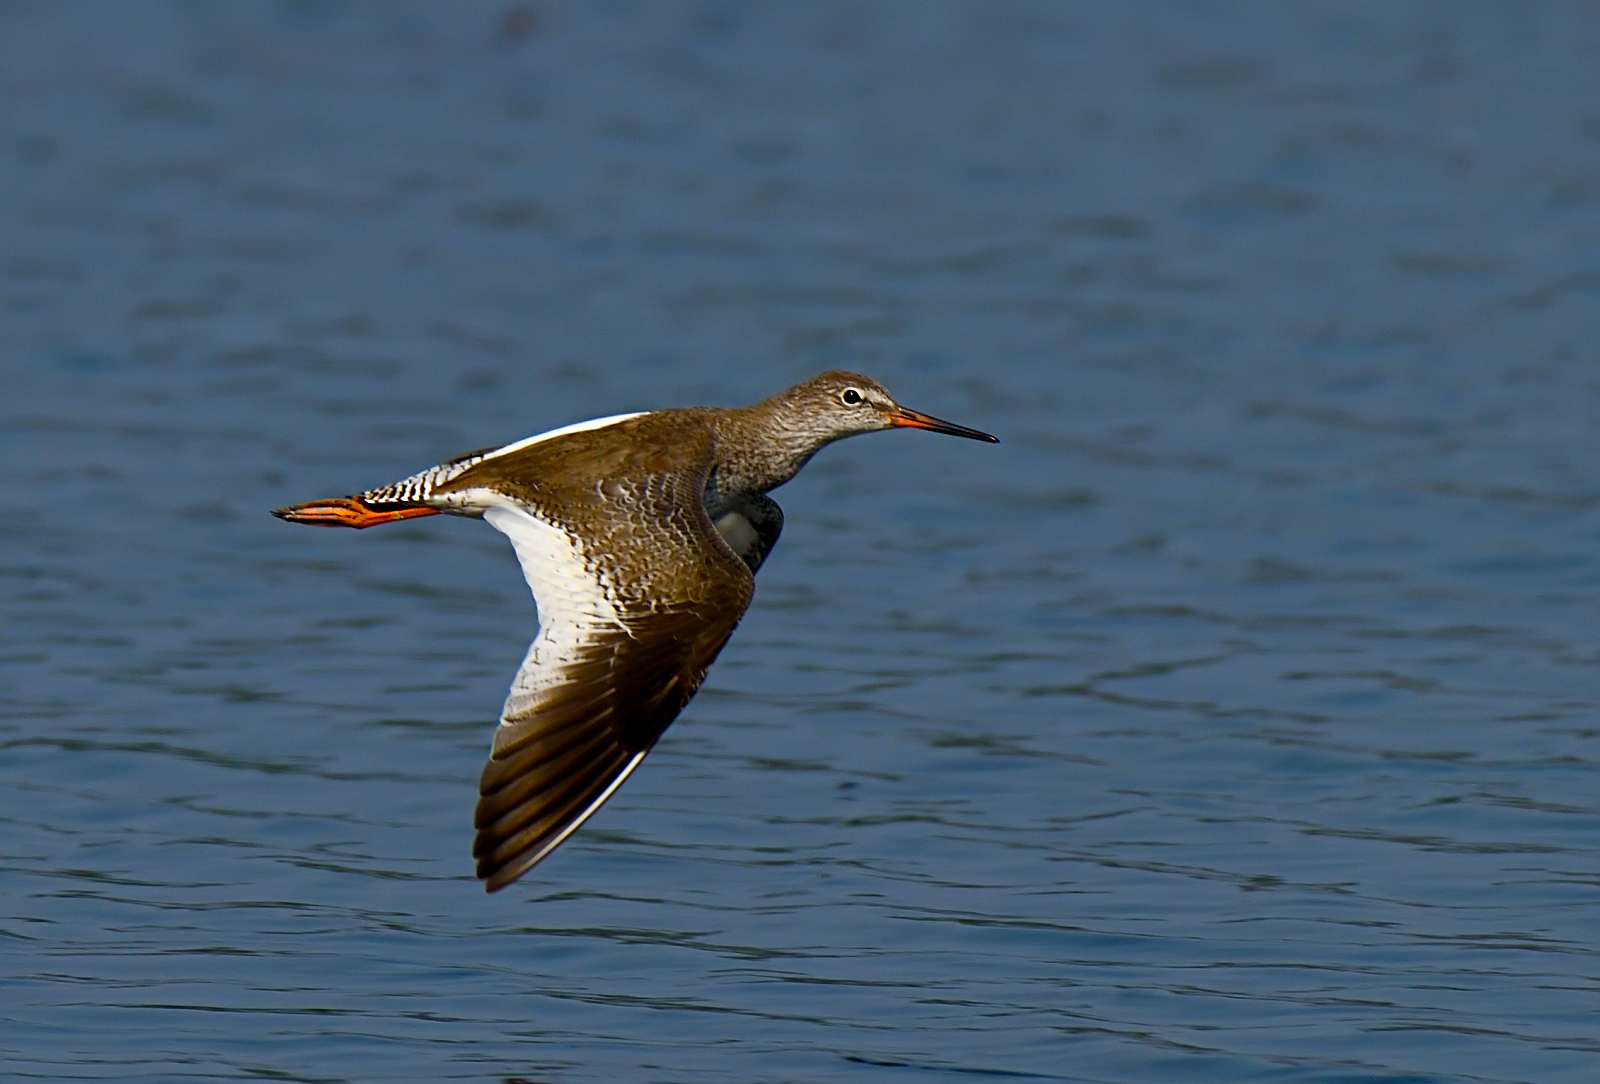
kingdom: Animalia
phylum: Chordata
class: Aves
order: Charadriiformes
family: Scolopacidae
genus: Tringa
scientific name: Tringa totanus
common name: Common redshank
